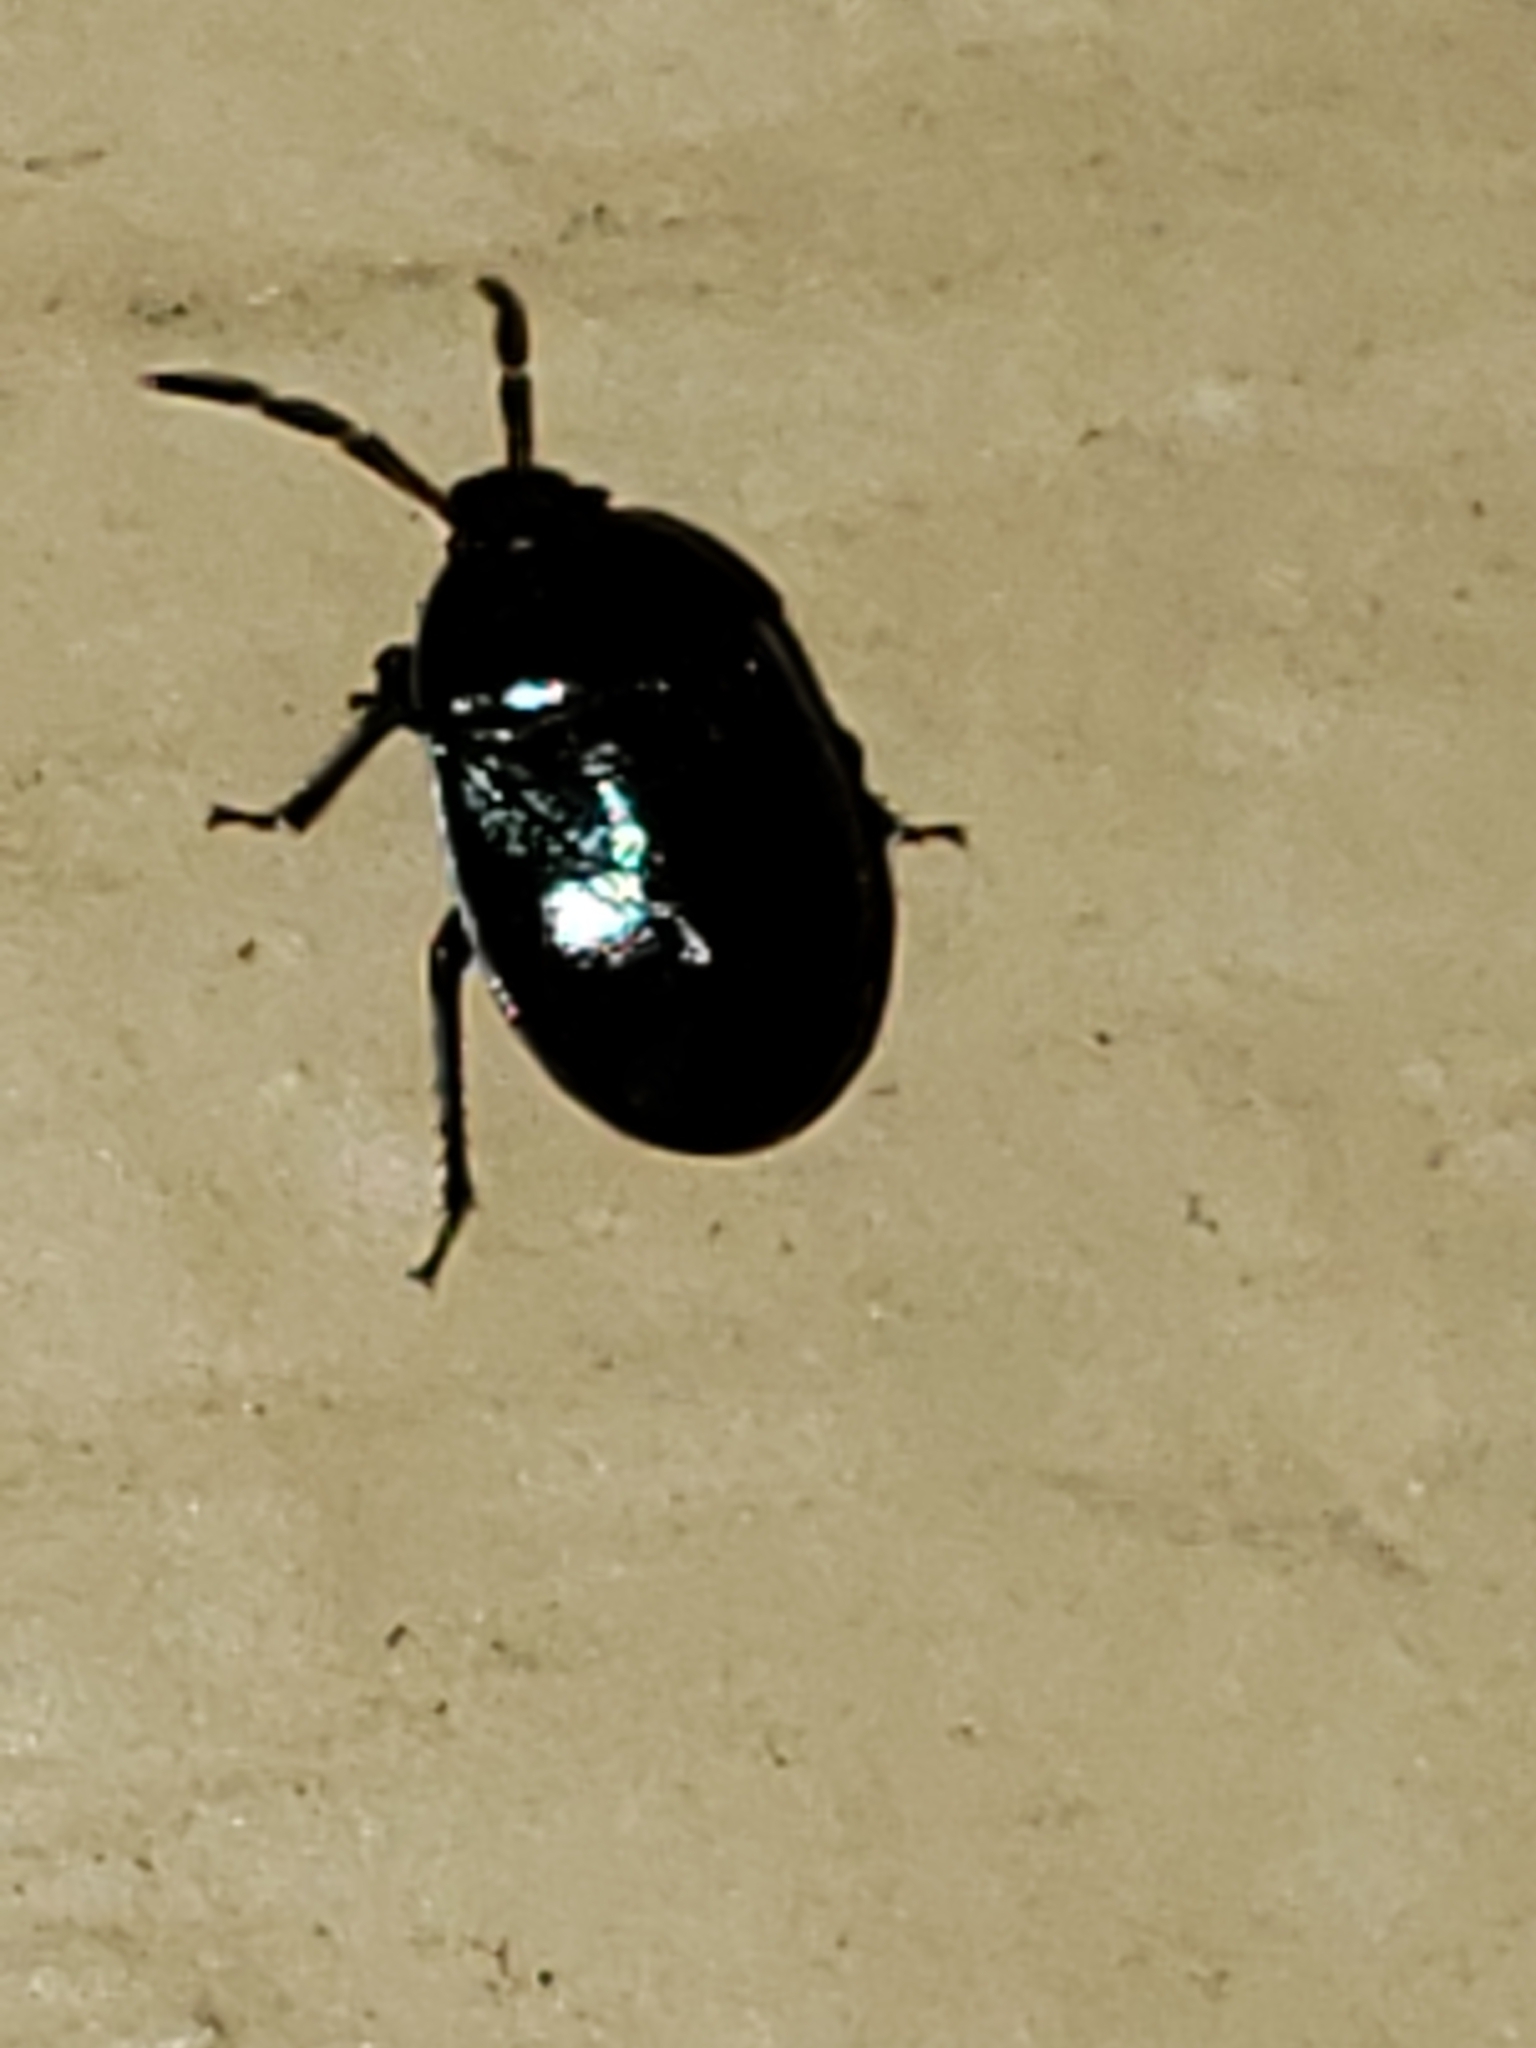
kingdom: Animalia
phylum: Arthropoda
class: Insecta
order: Hemiptera
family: Cydnidae
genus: Sehirus
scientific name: Sehirus cinctus
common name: White-margined burrower bug
